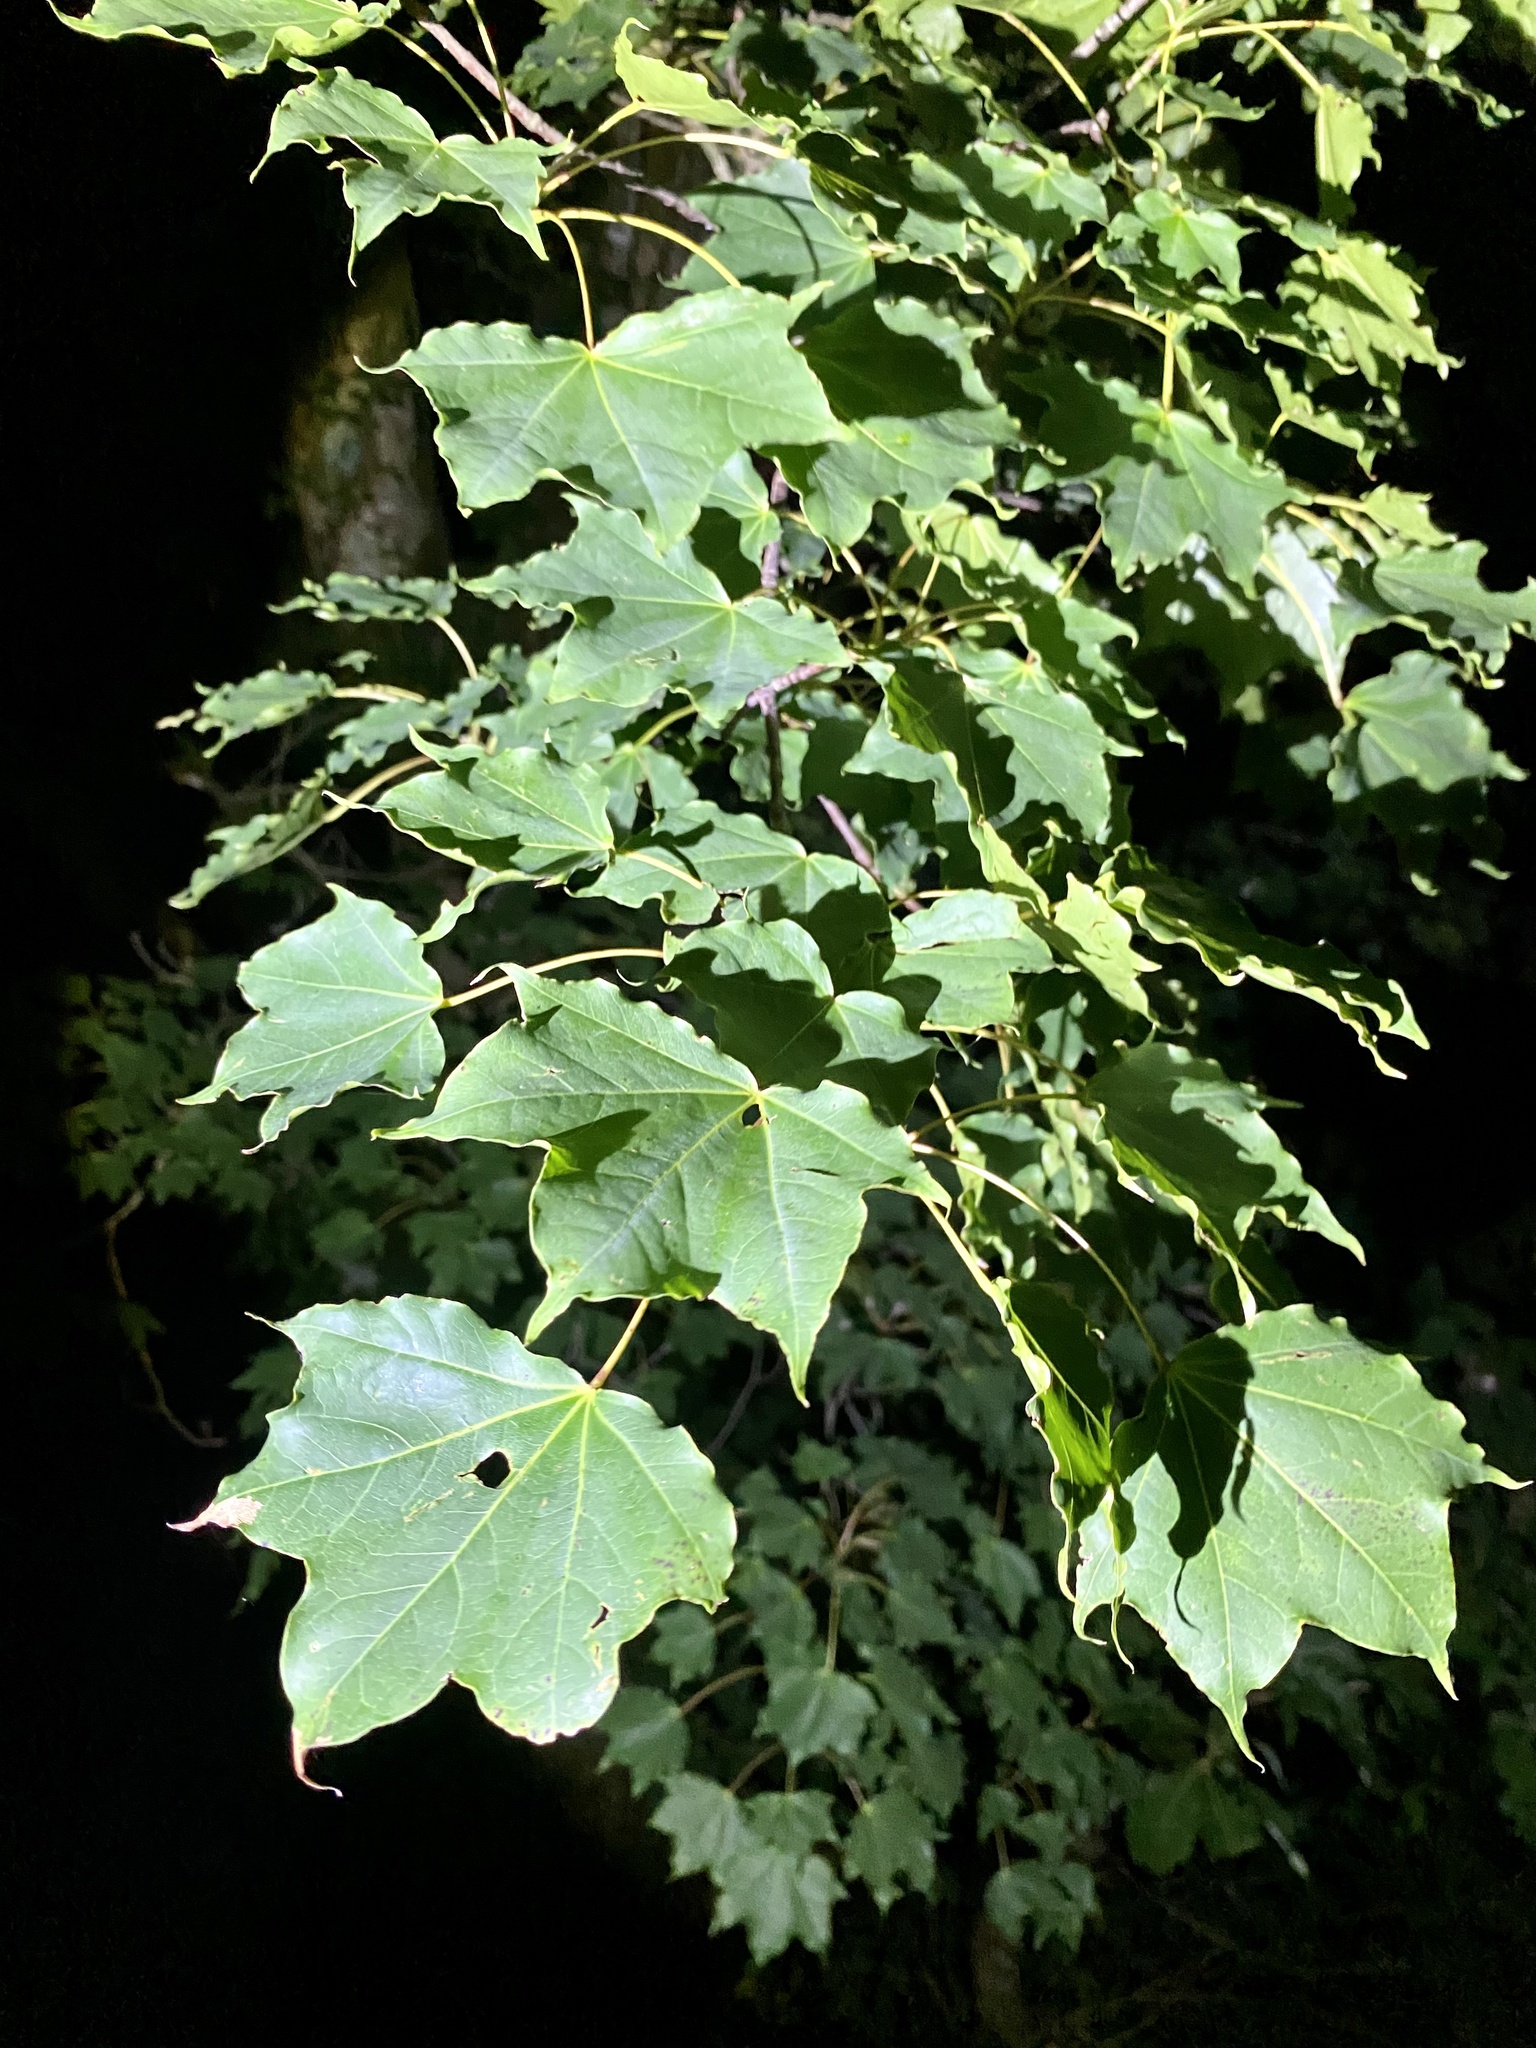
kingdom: Plantae
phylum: Tracheophyta
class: Magnoliopsida
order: Sapindales
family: Sapindaceae
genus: Acer
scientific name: Acer pictum
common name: The painted maple
